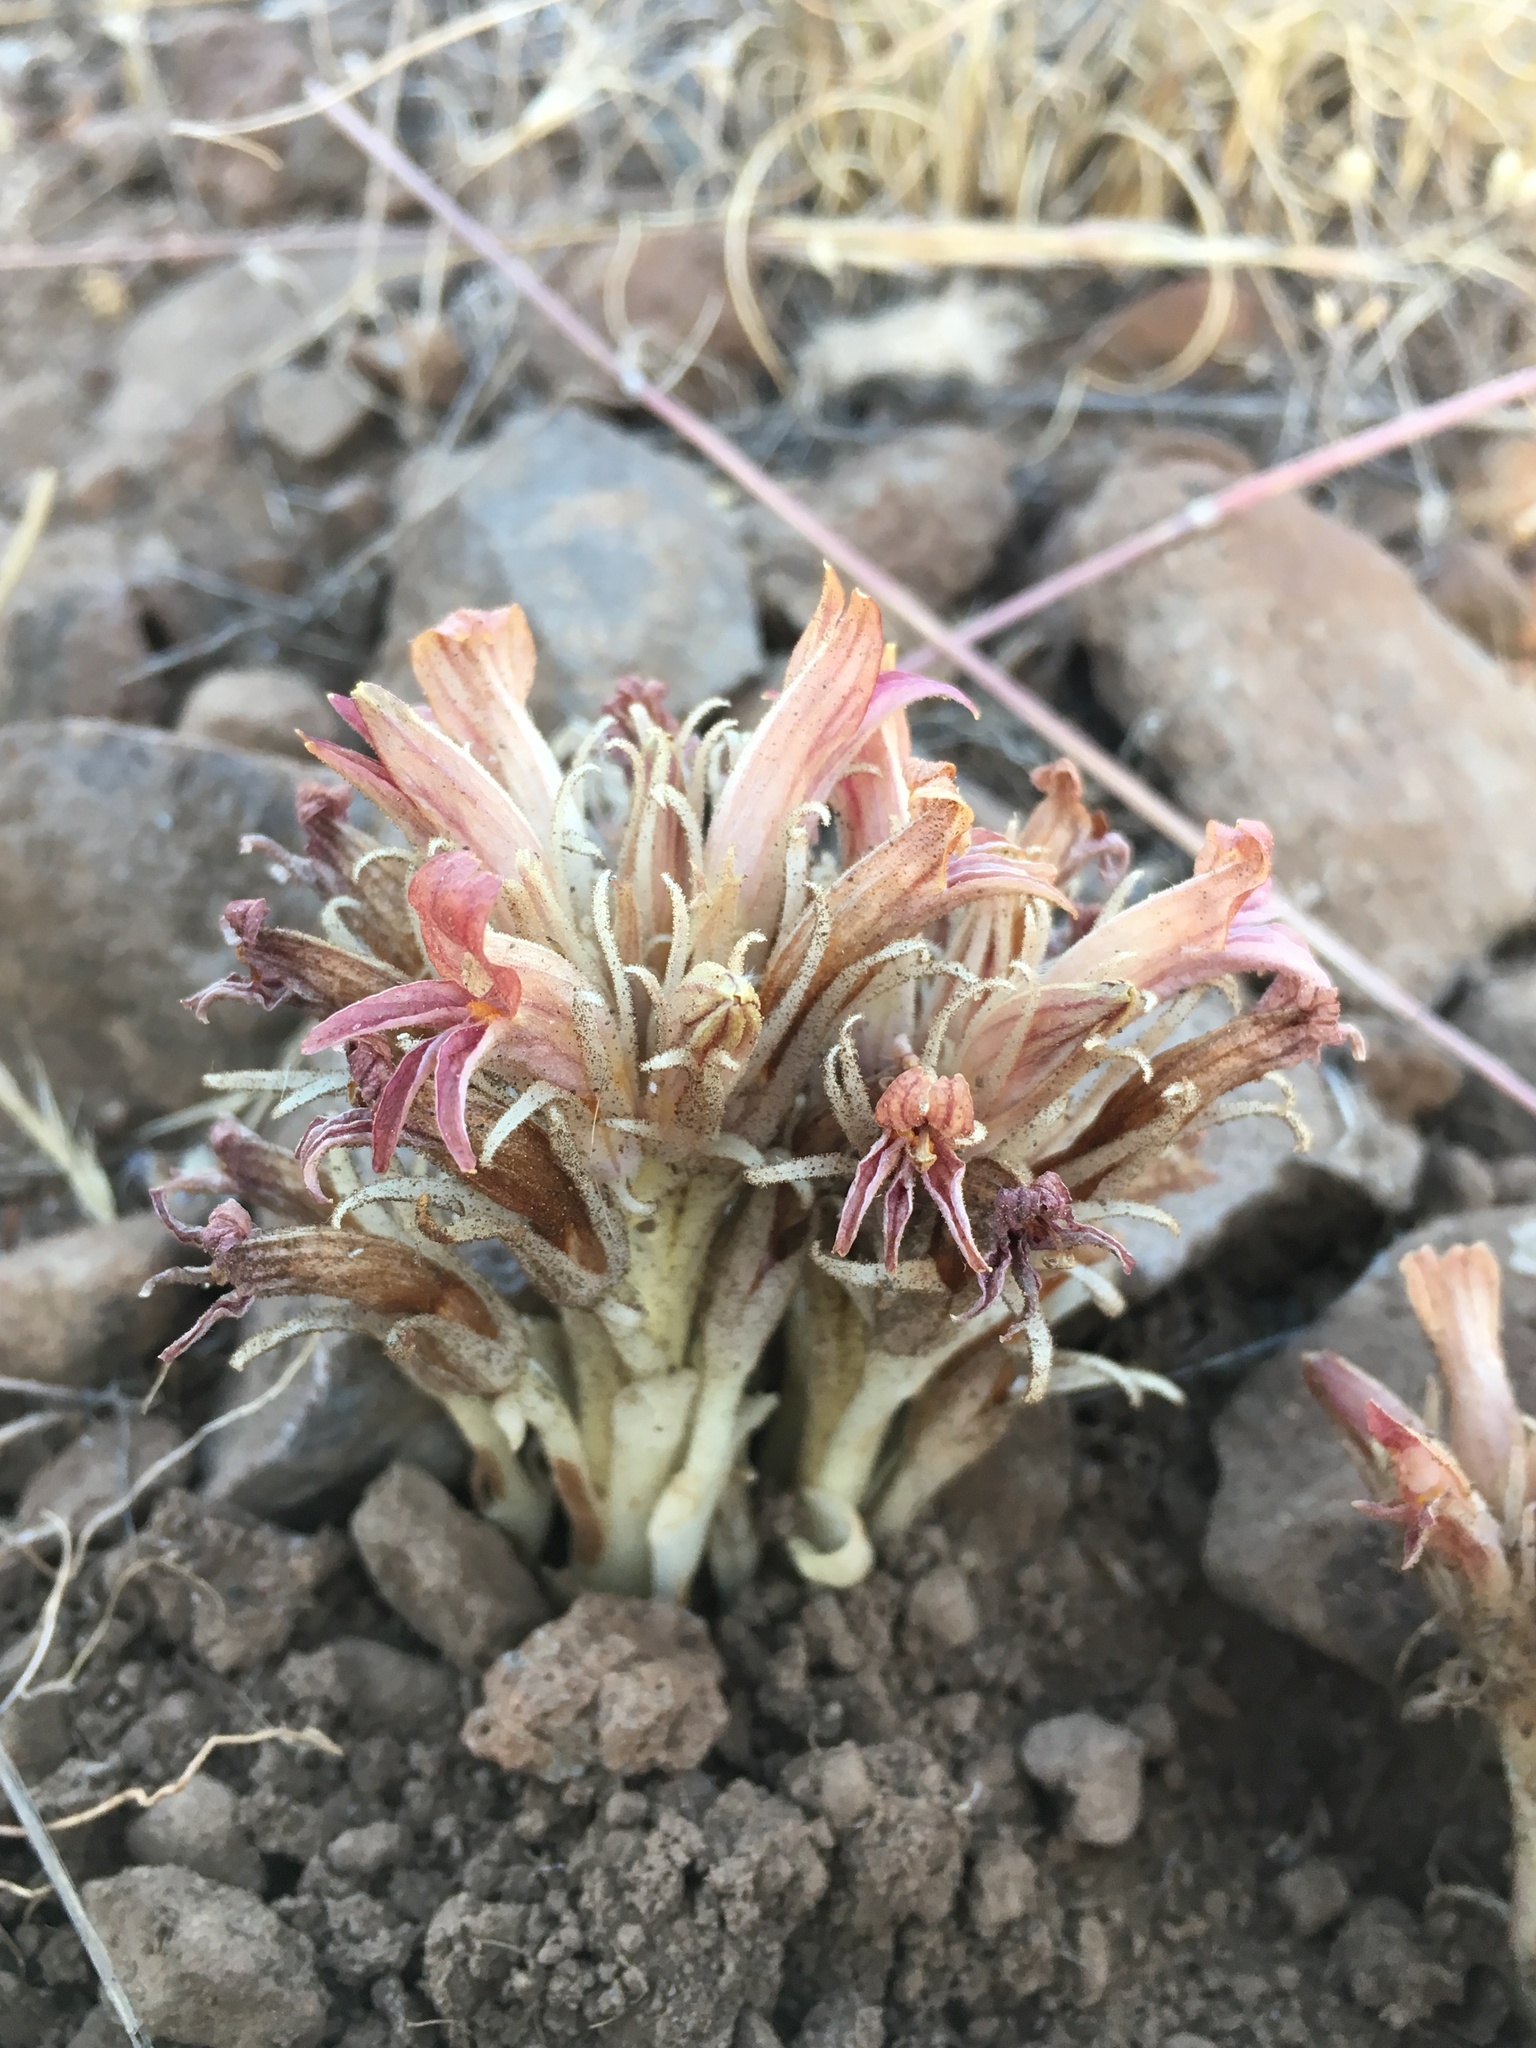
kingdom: Plantae
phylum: Tracheophyta
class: Magnoliopsida
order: Lamiales
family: Orobanchaceae
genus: Aphyllon
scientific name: Aphyllon corymbosum
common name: Flat-top broomrape
